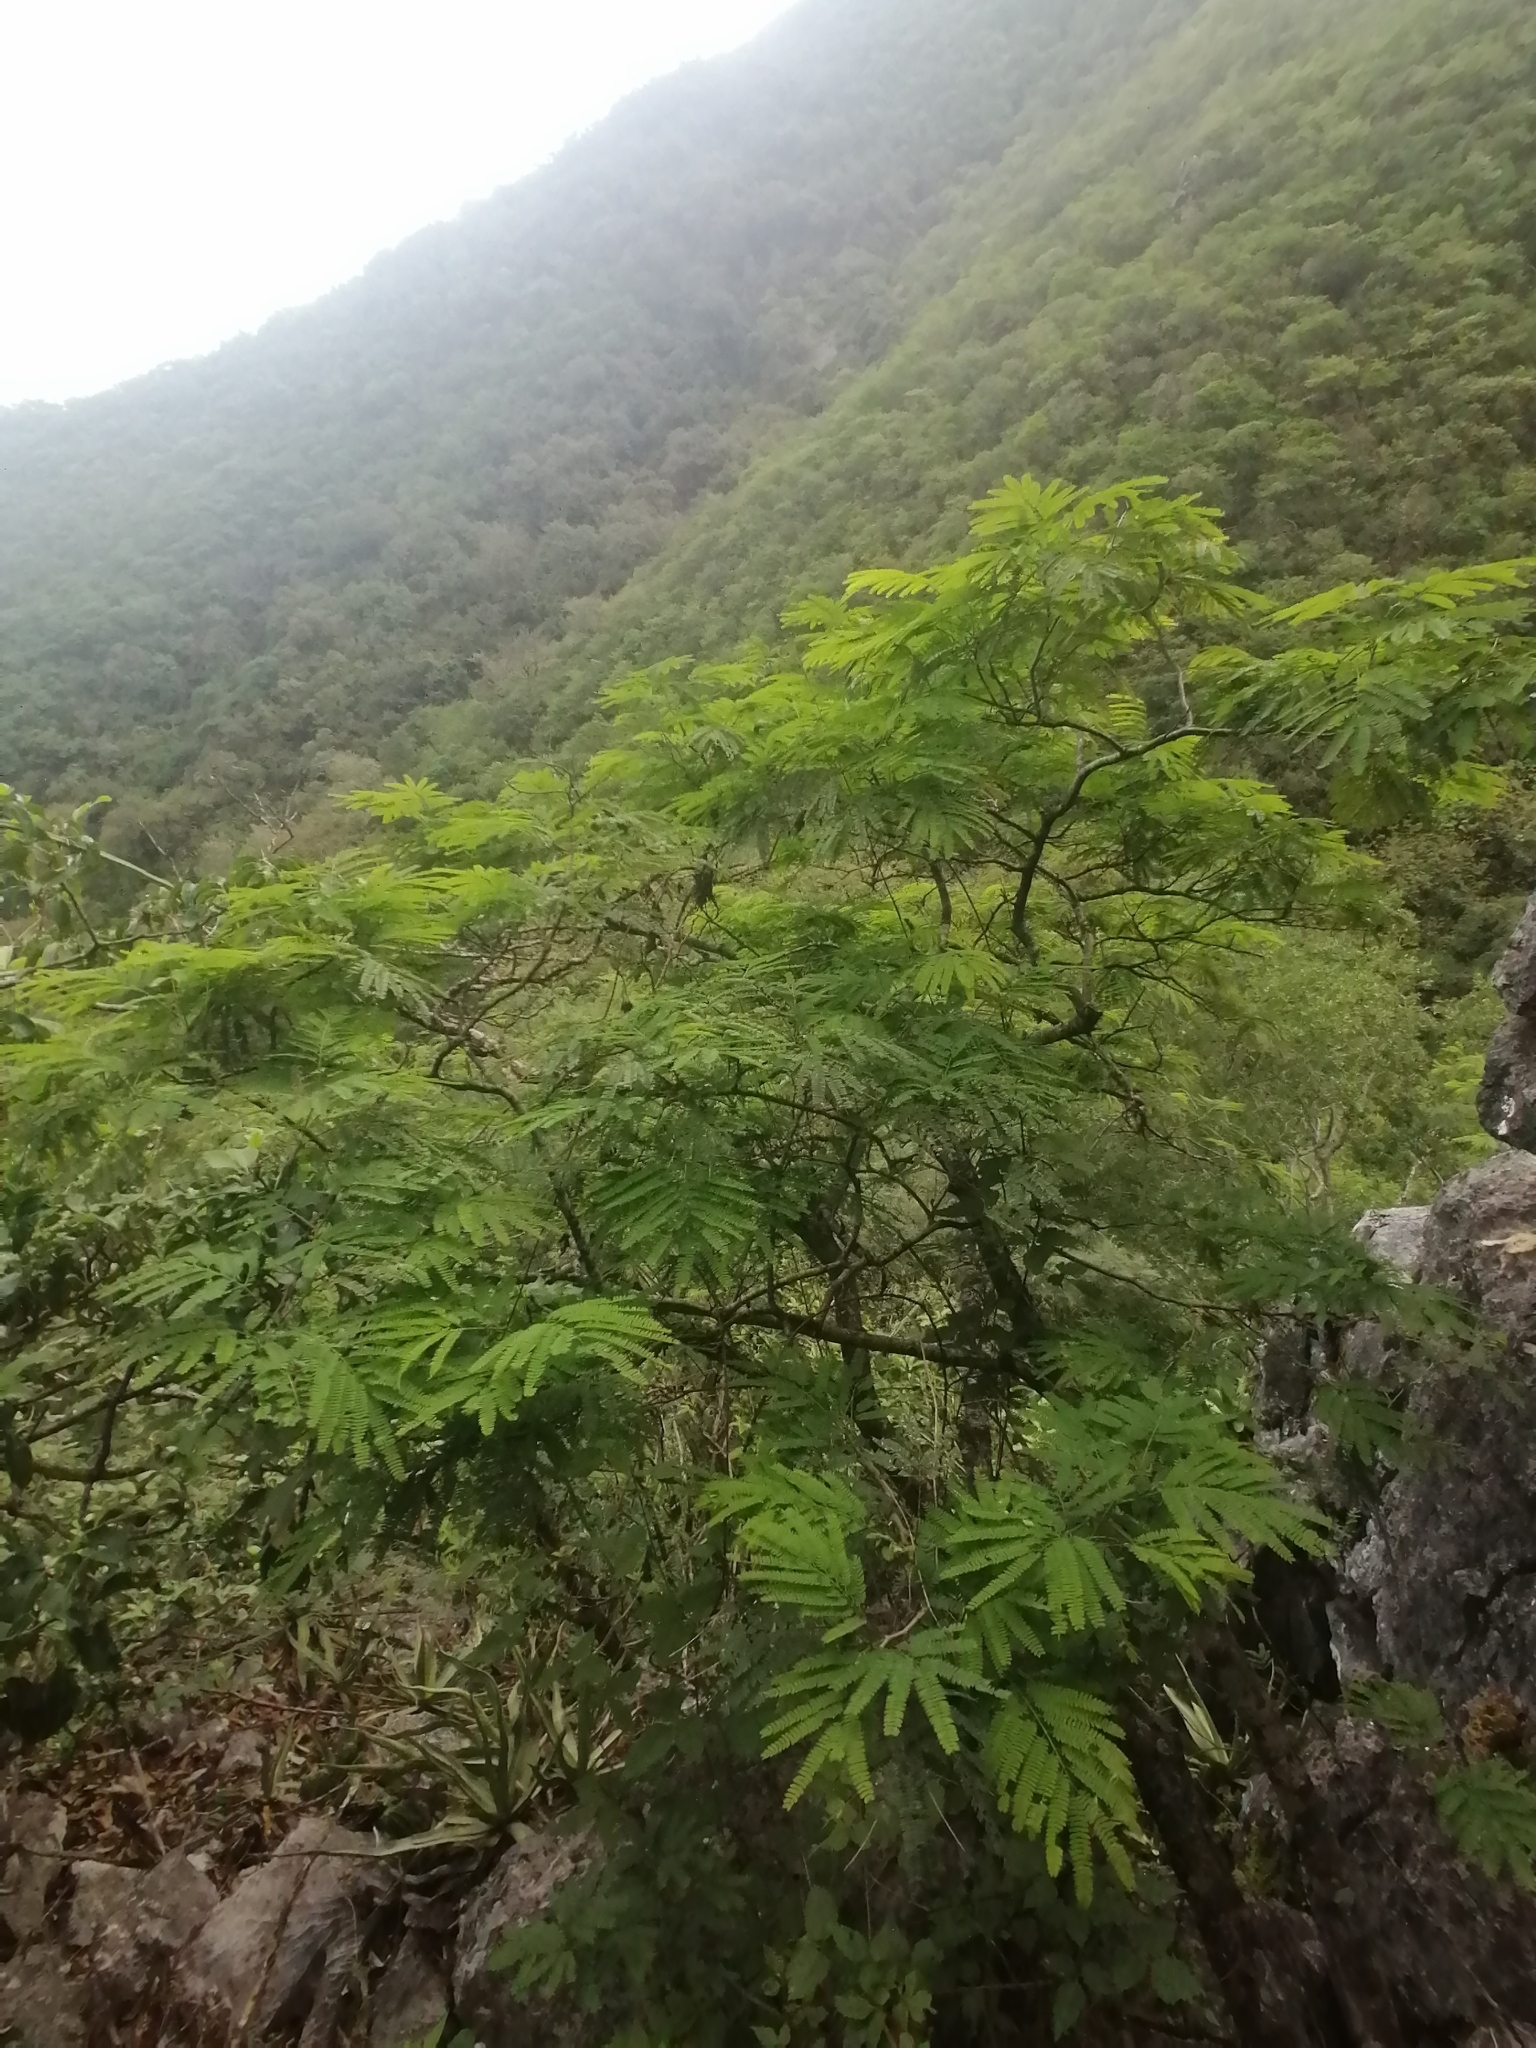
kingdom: Plantae
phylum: Tracheophyta
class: Magnoliopsida
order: Fabales
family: Fabaceae
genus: Mariosousa
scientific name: Mariosousa coulteri
